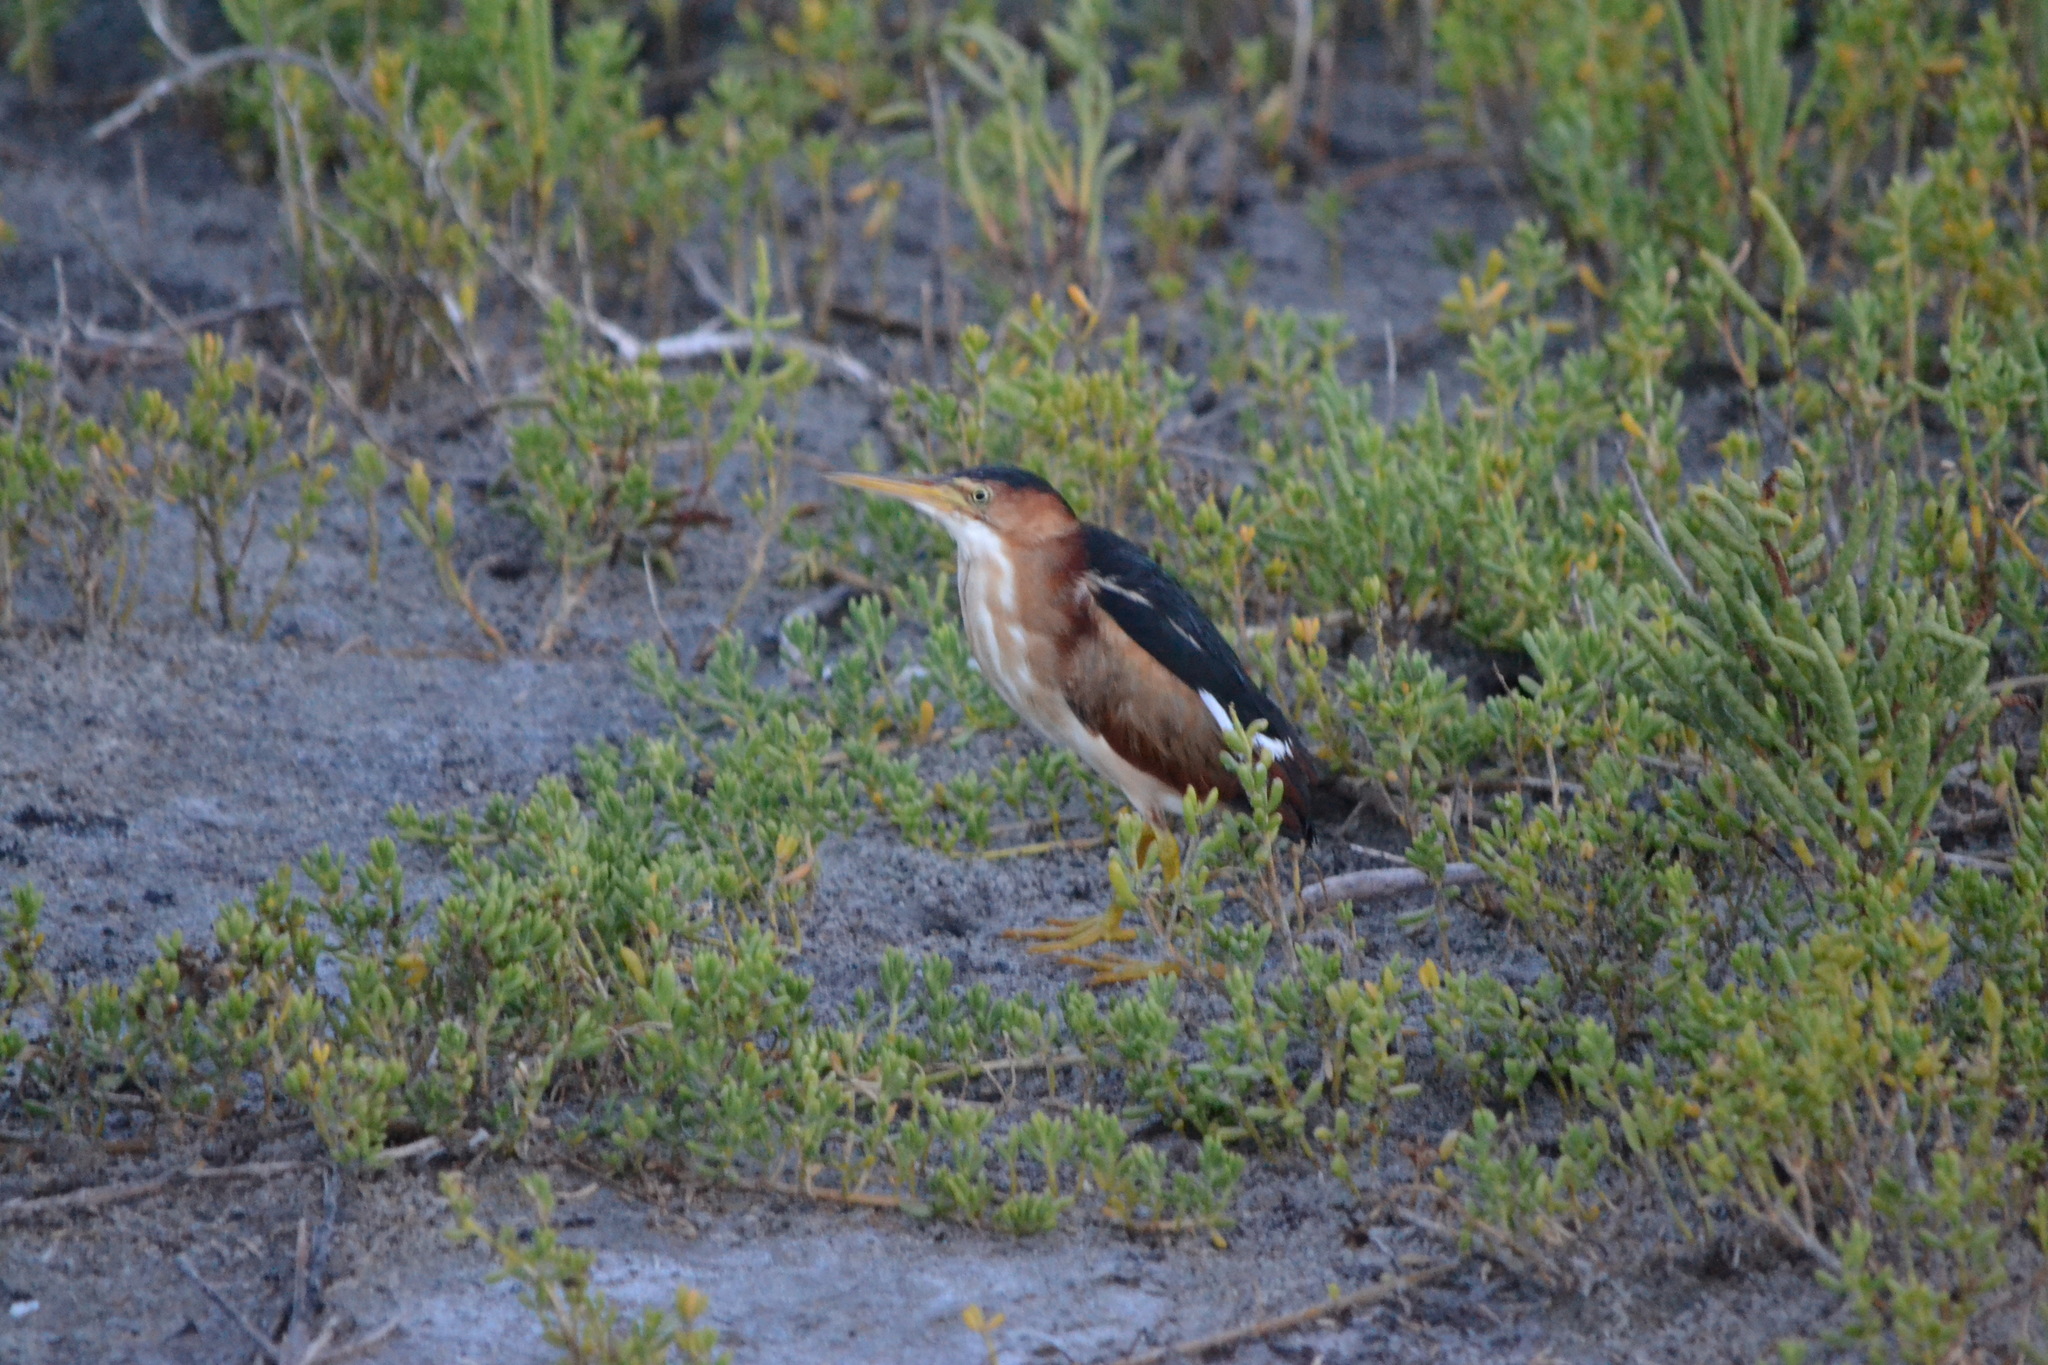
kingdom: Animalia
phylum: Chordata
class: Aves
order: Pelecaniformes
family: Ardeidae
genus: Ixobrychus
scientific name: Ixobrychus exilis
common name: Least bittern
